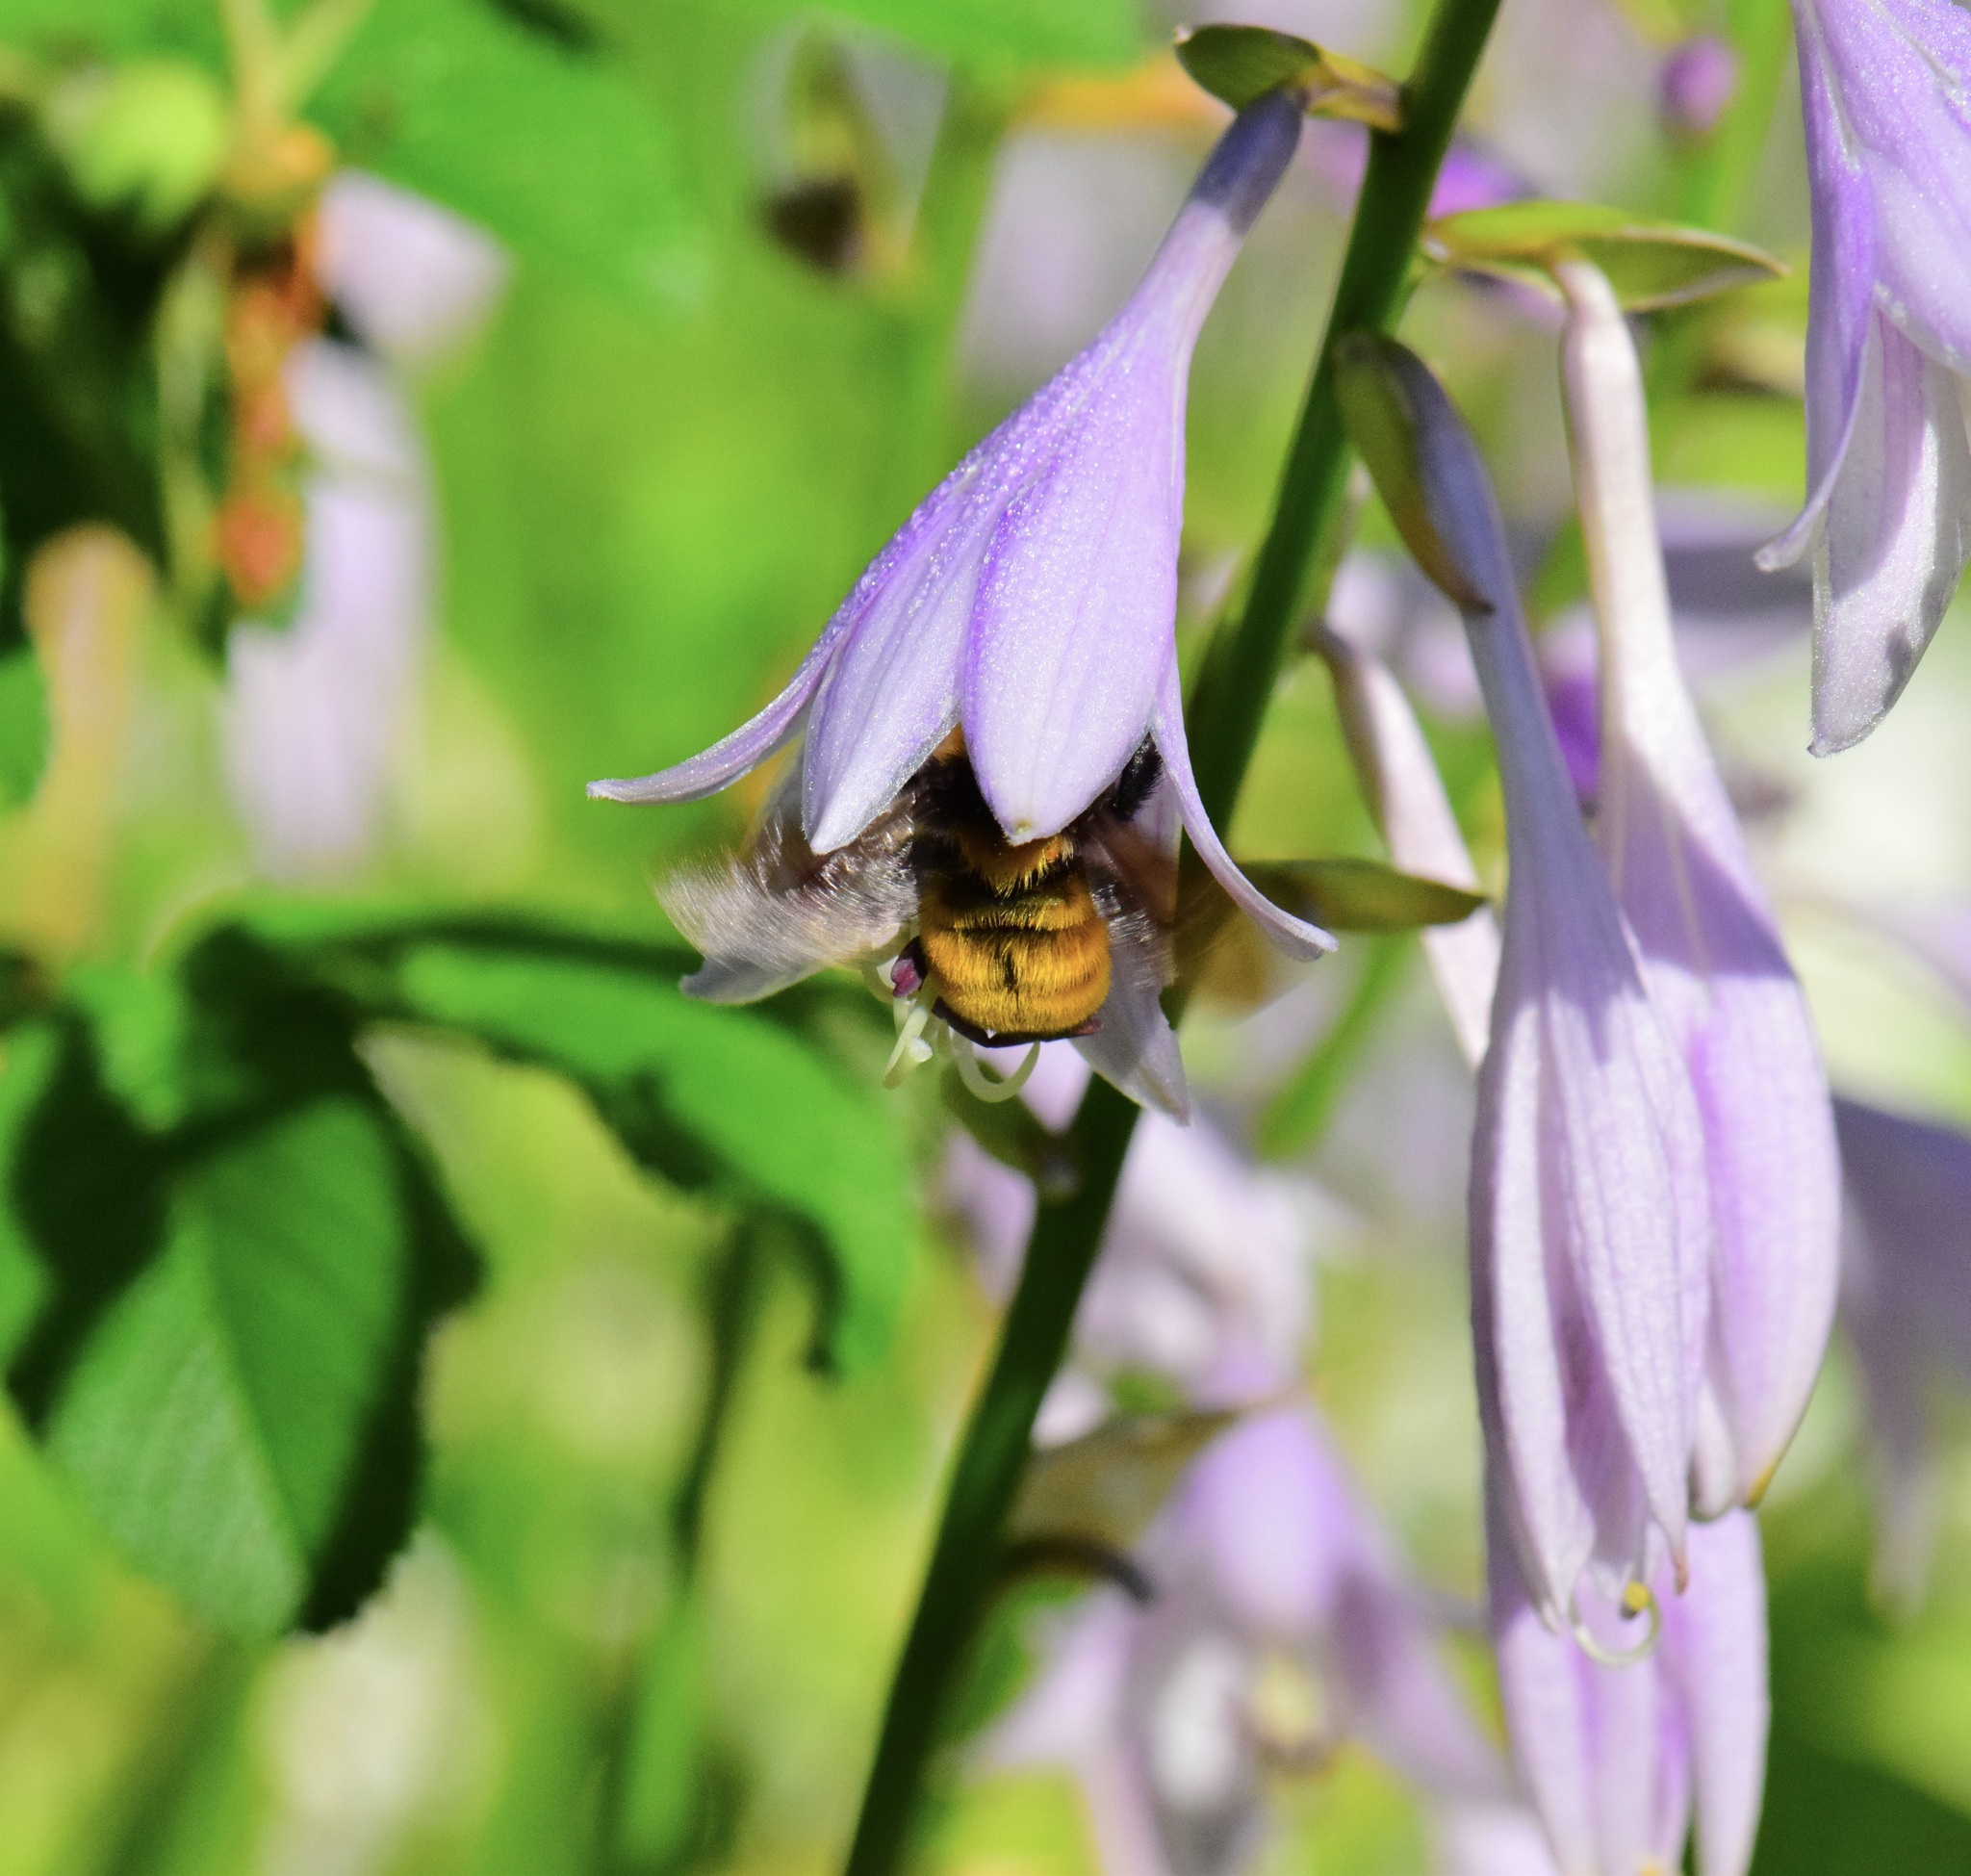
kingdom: Animalia
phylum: Arthropoda
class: Insecta
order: Hymenoptera
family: Apidae
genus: Bombus
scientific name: Bombus borealis
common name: Northern amber bumble bee
